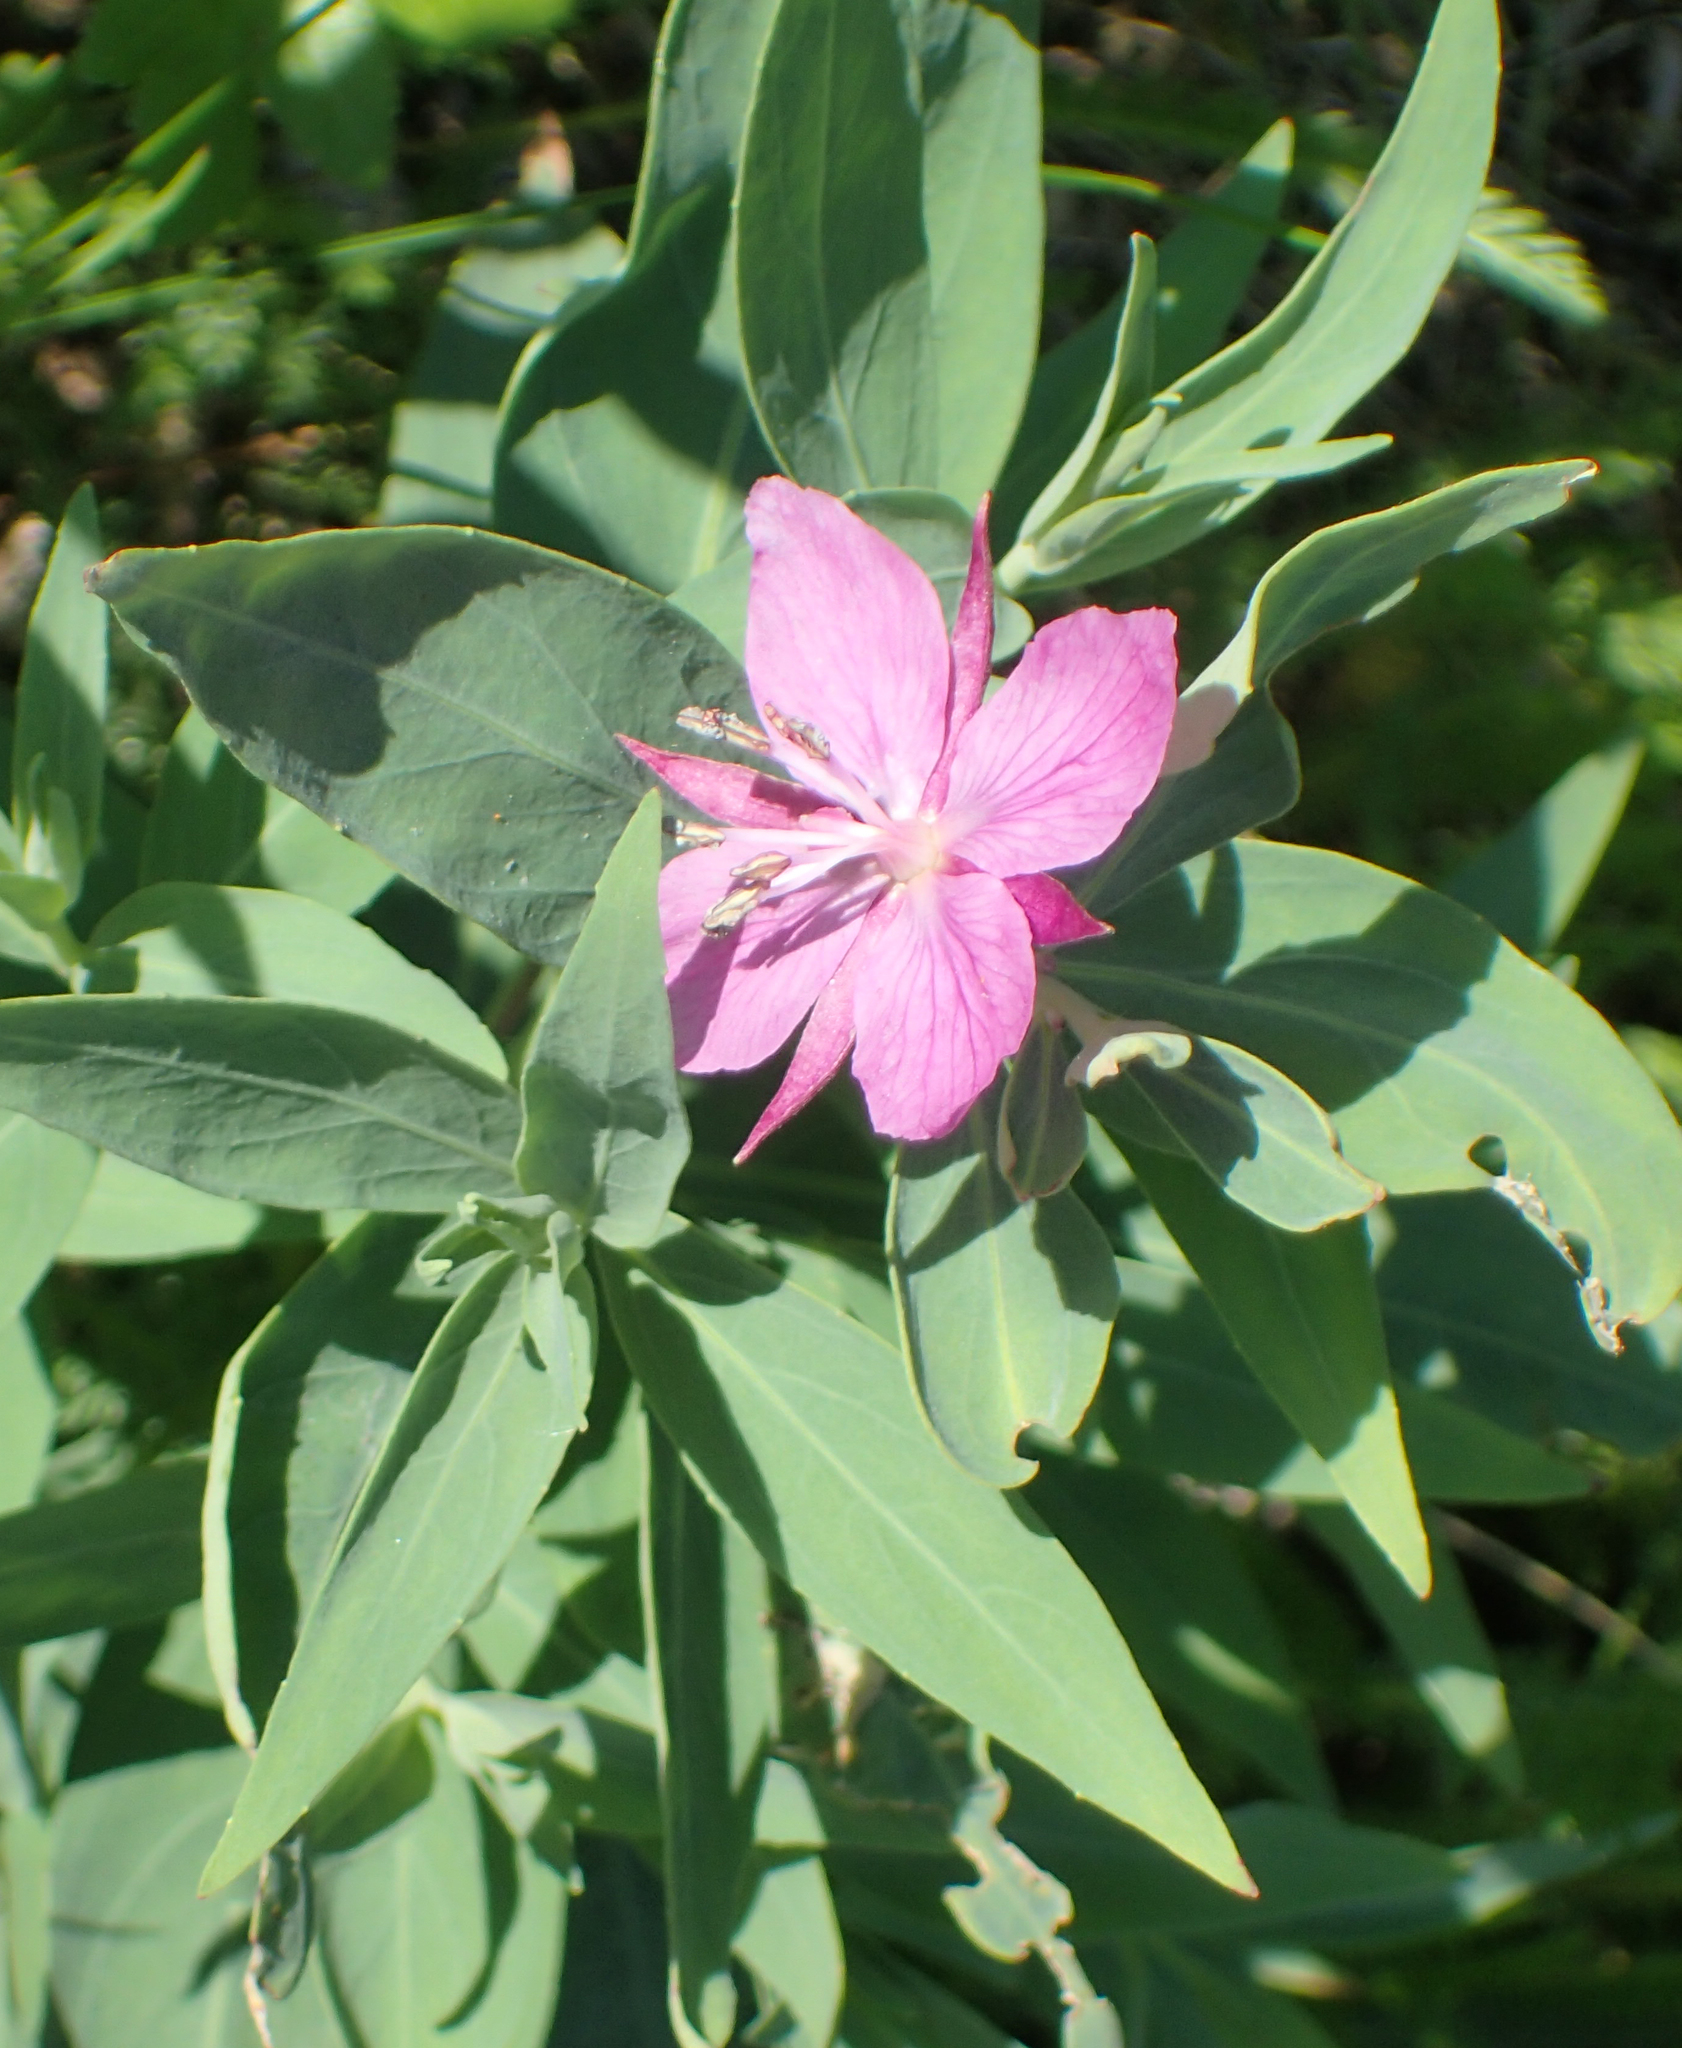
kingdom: Plantae
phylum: Tracheophyta
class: Magnoliopsida
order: Myrtales
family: Onagraceae
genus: Chamaenerion
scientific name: Chamaenerion latifolium
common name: Dwarf fireweed
